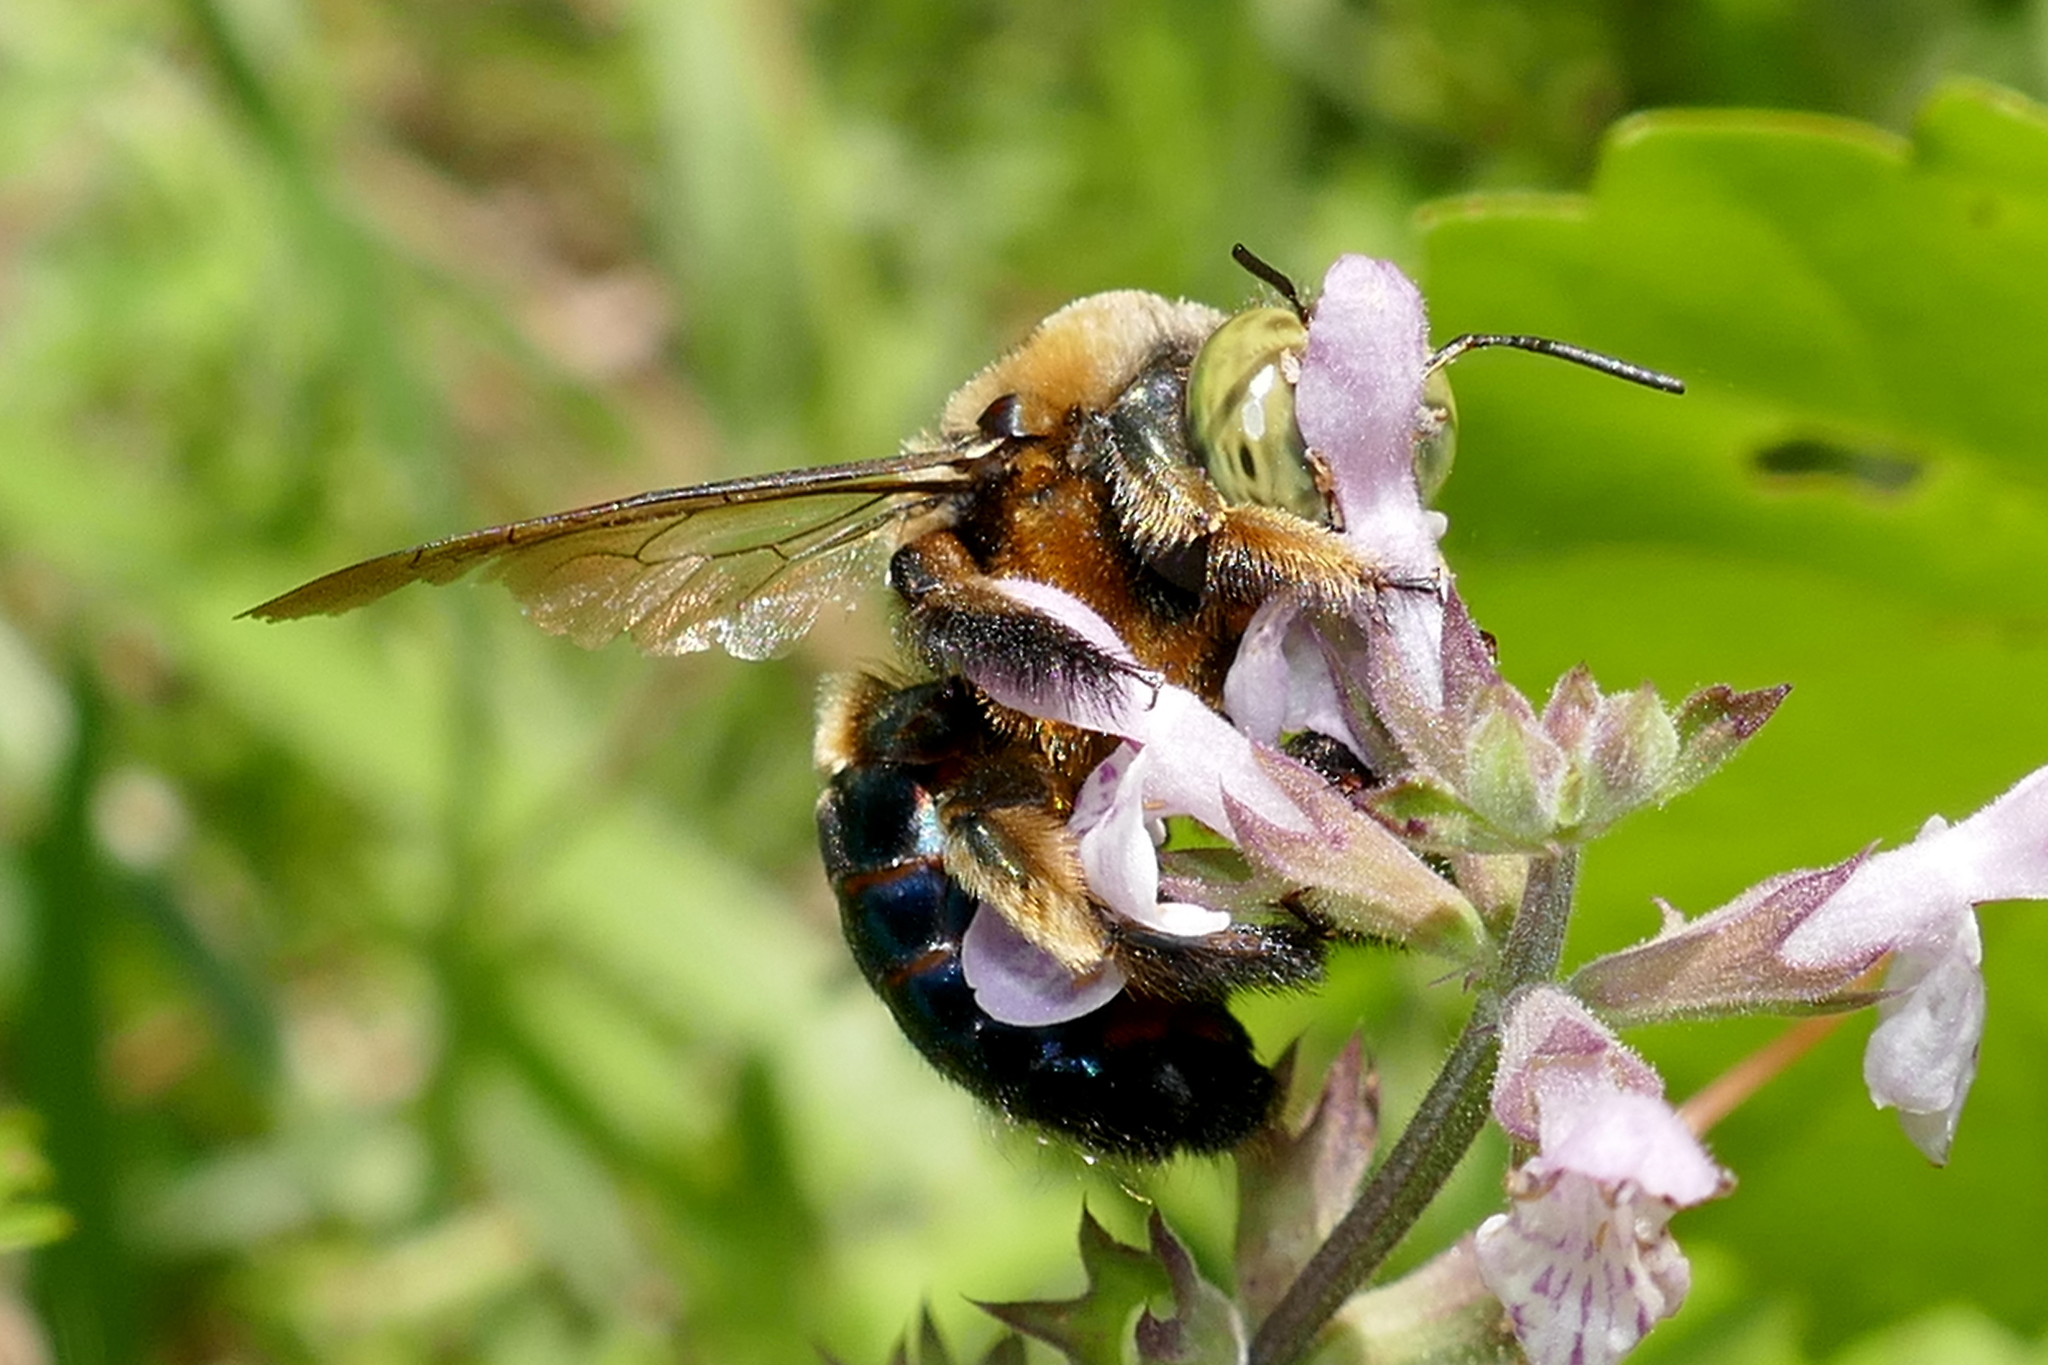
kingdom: Animalia
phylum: Arthropoda
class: Insecta
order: Hymenoptera
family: Apidae
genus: Xylocopa
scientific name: Xylocopa micans
